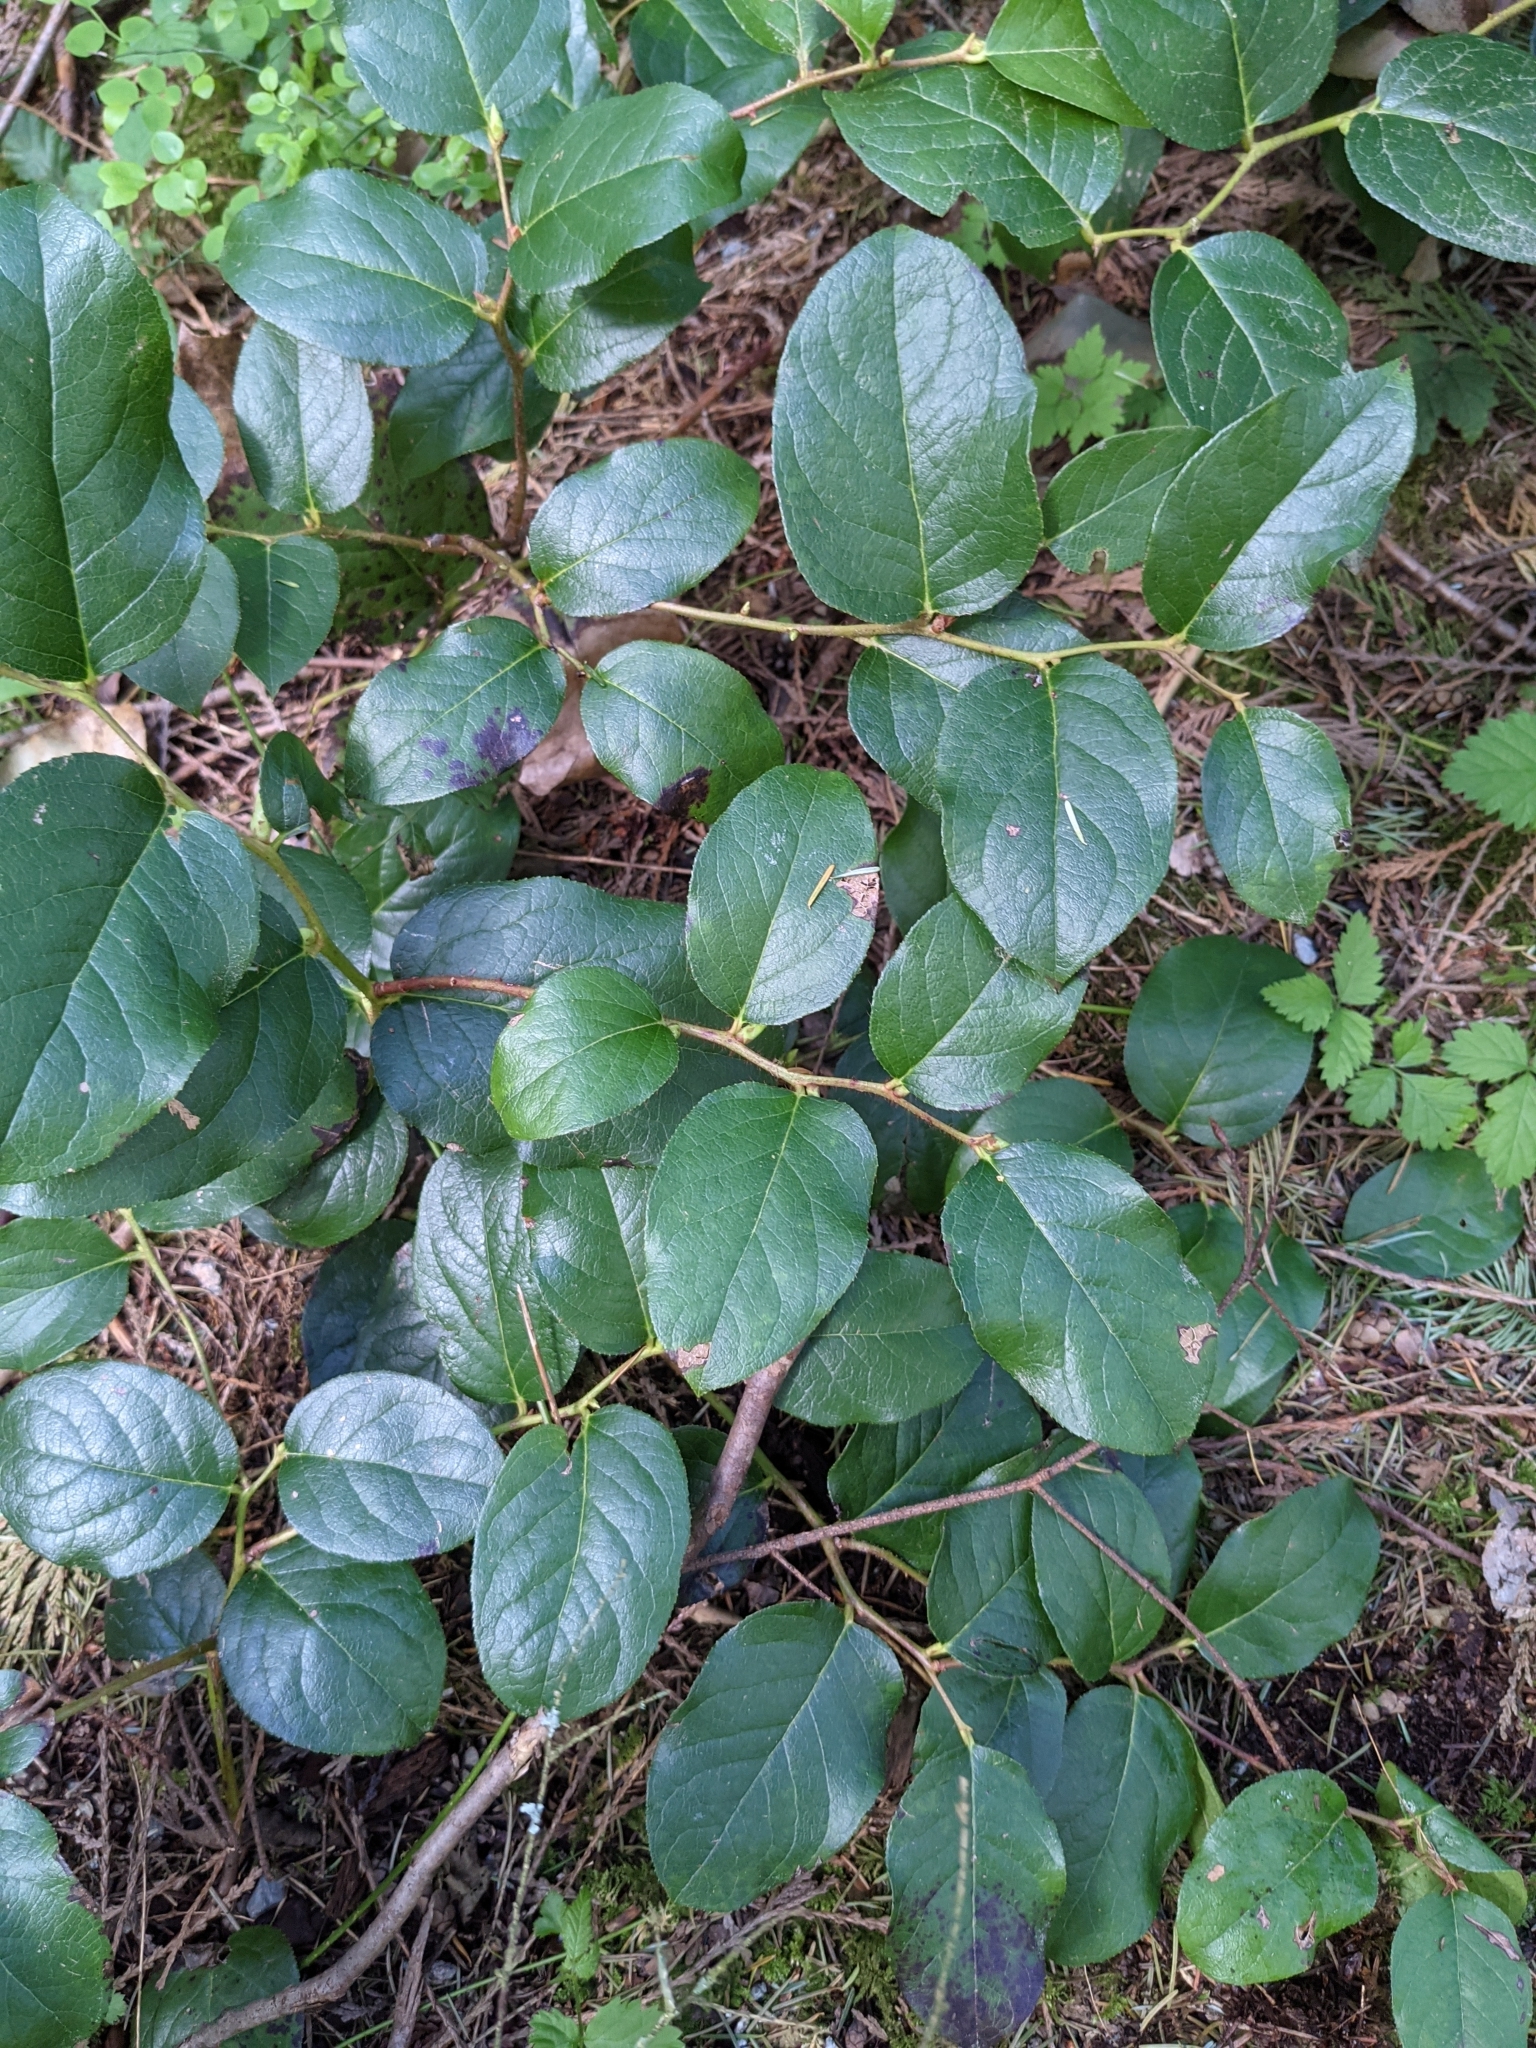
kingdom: Plantae
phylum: Tracheophyta
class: Magnoliopsida
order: Ericales
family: Ericaceae
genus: Gaultheria
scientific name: Gaultheria shallon
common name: Shallon
